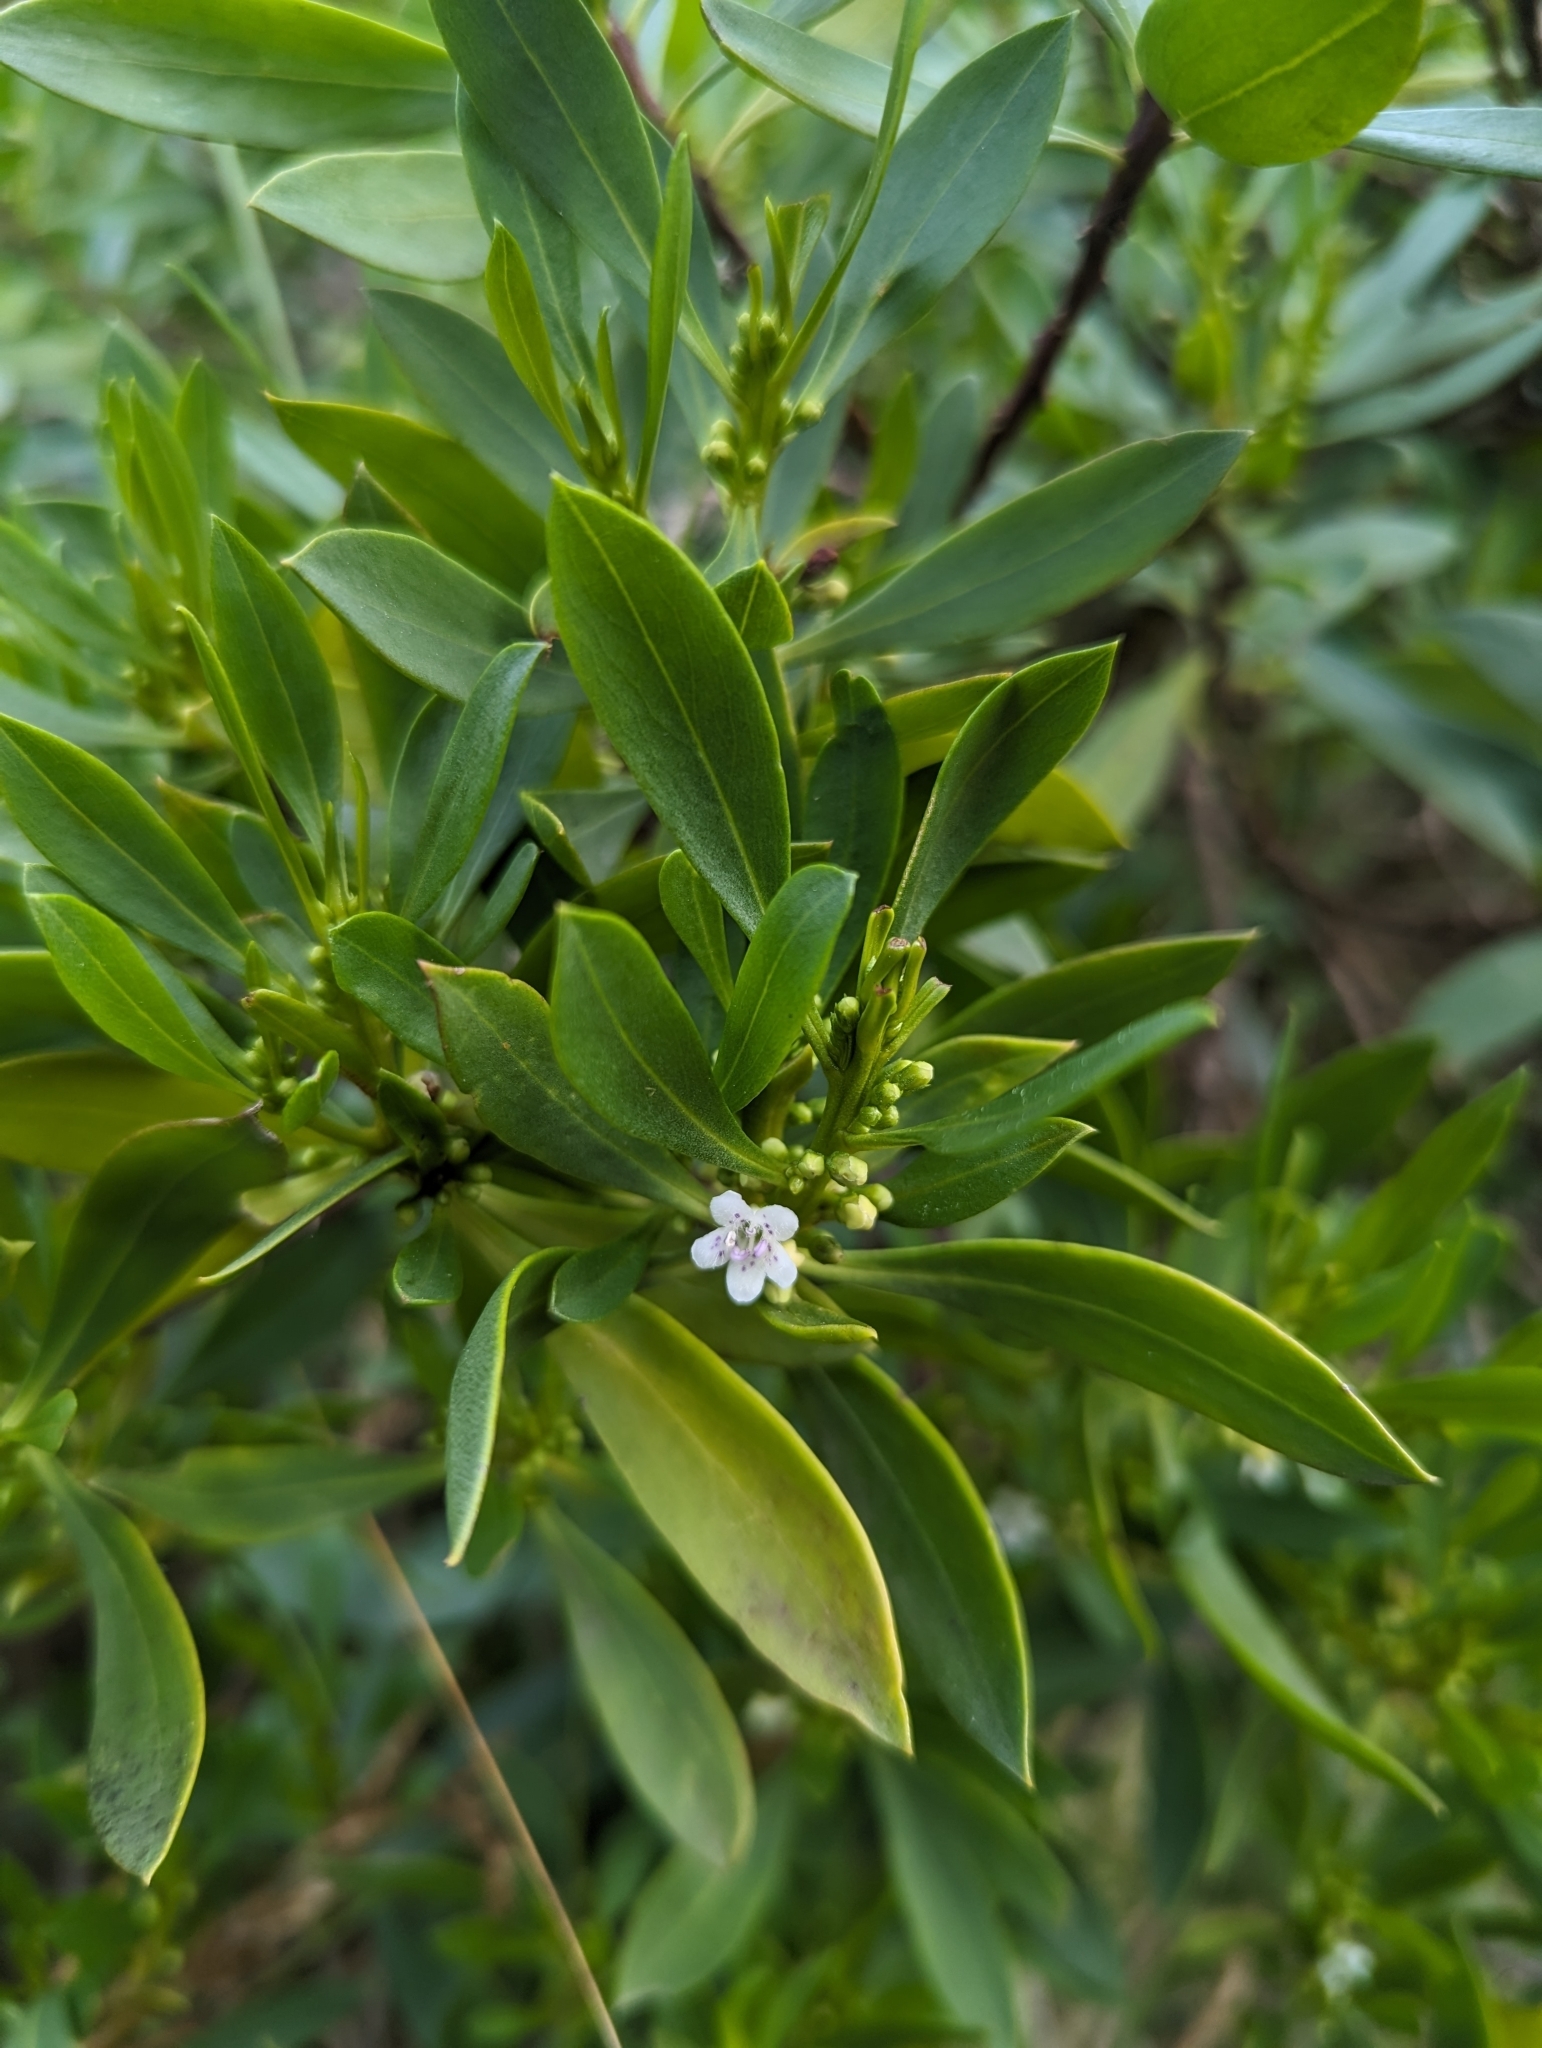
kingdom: Plantae
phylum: Tracheophyta
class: Magnoliopsida
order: Lamiales
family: Scrophulariaceae
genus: Myoporum
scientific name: Myoporum insulare
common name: Common boobialla
